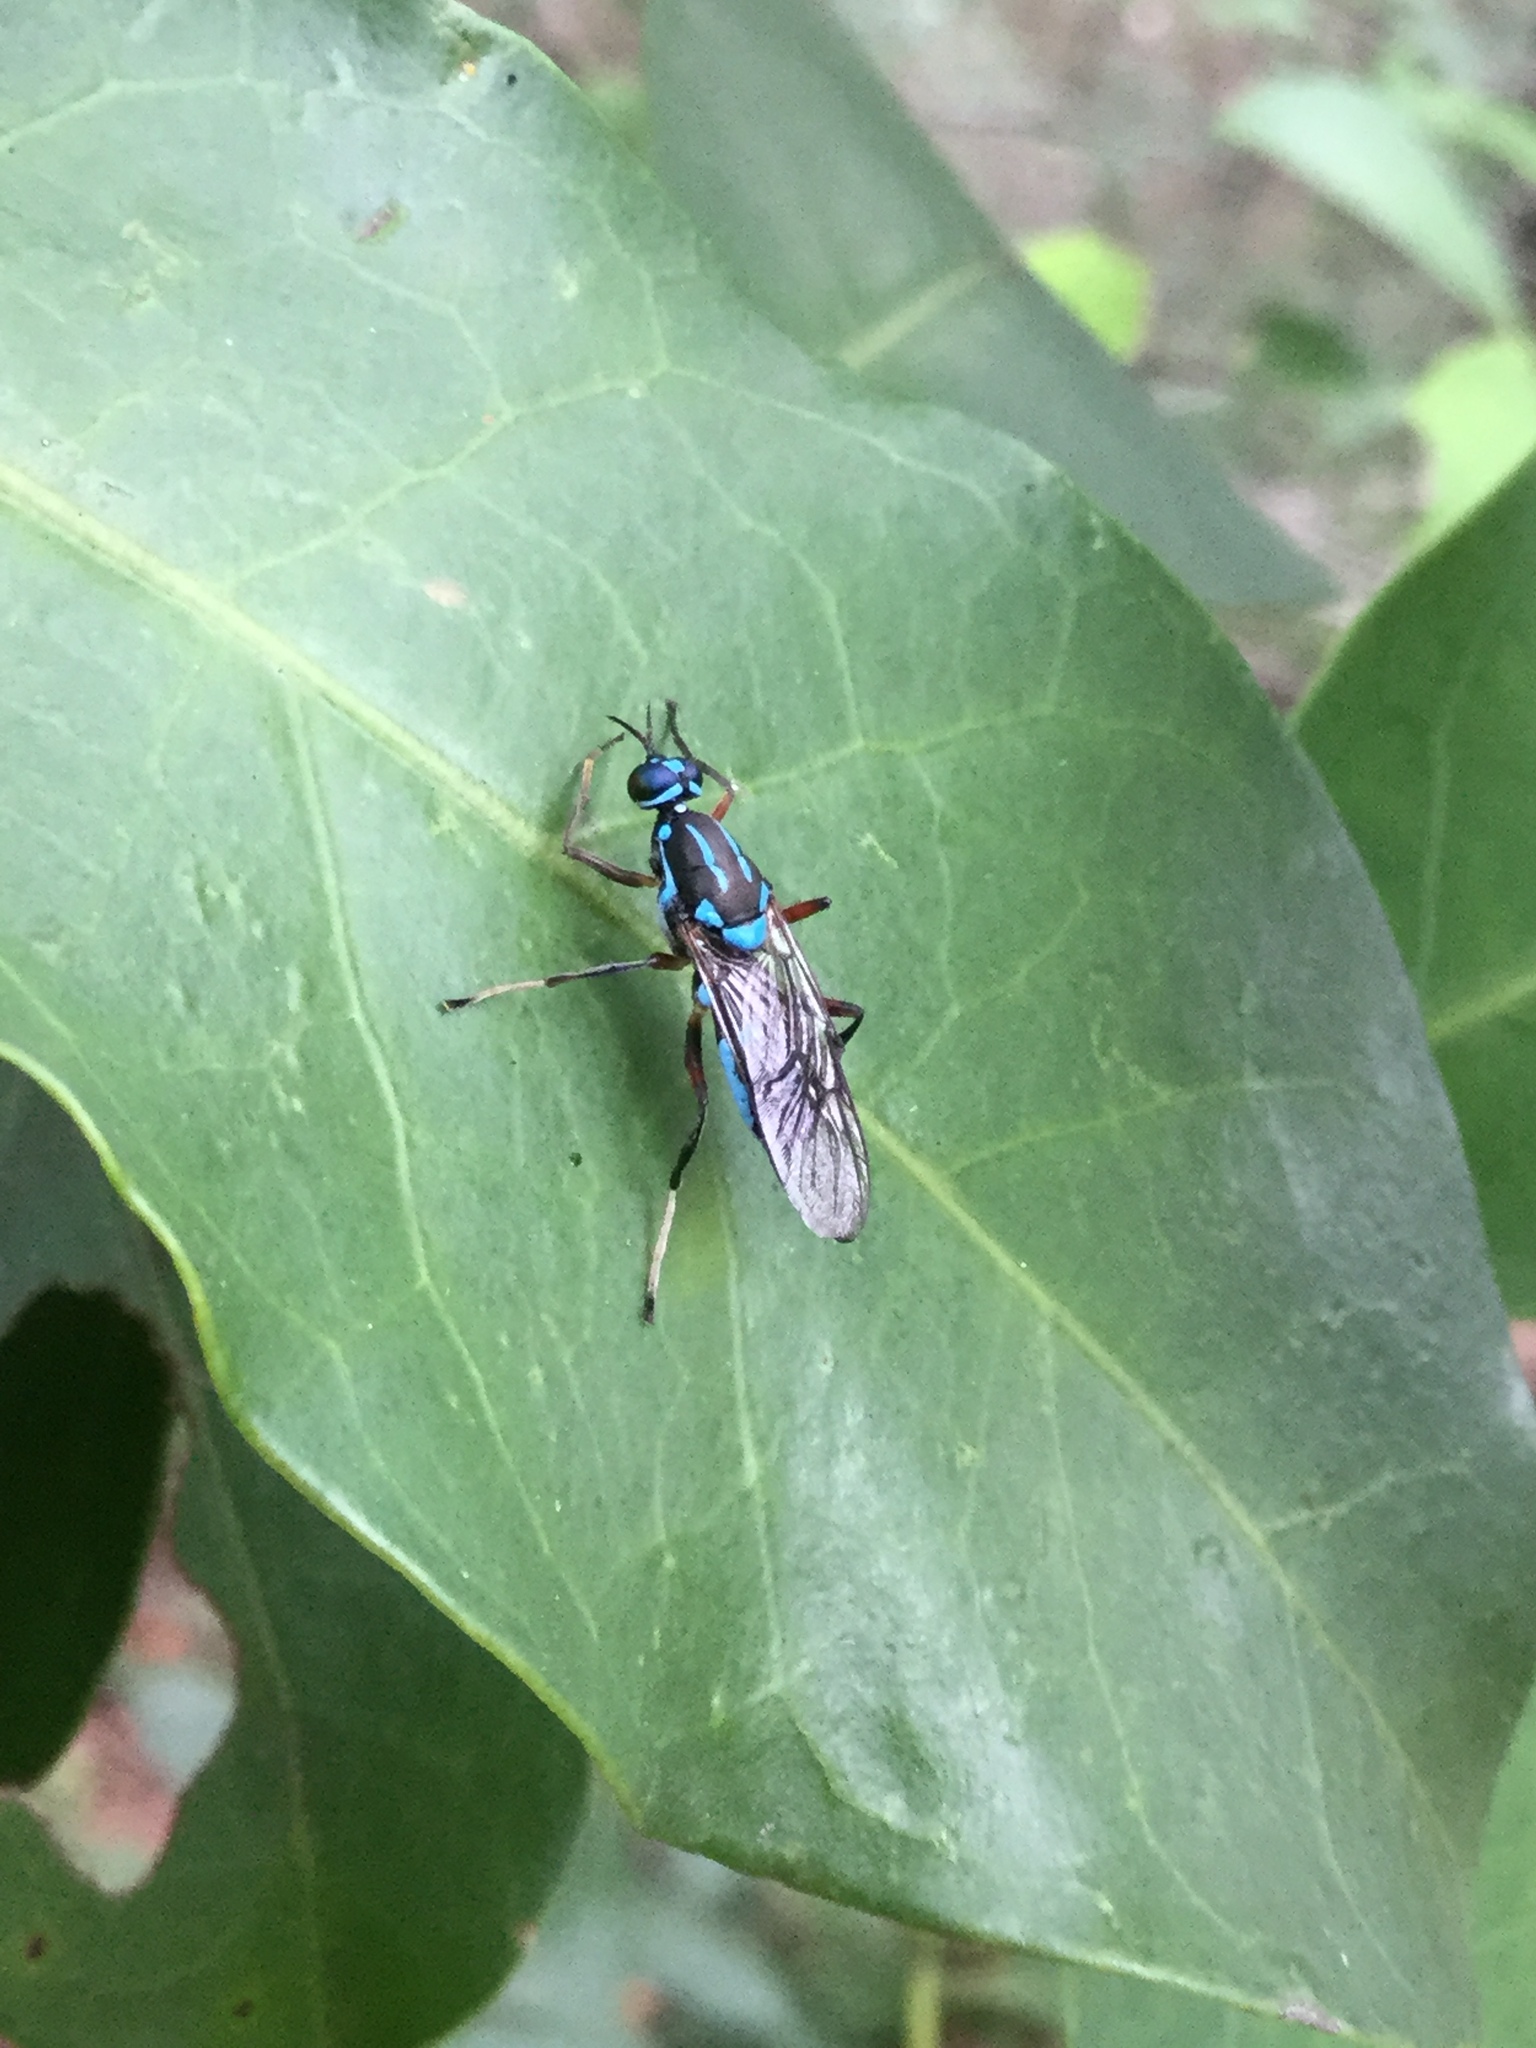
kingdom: Animalia
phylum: Arthropoda
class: Insecta
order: Diptera
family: Stratiomyidae
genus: Brachythrix
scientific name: Brachythrix dileucostigma
